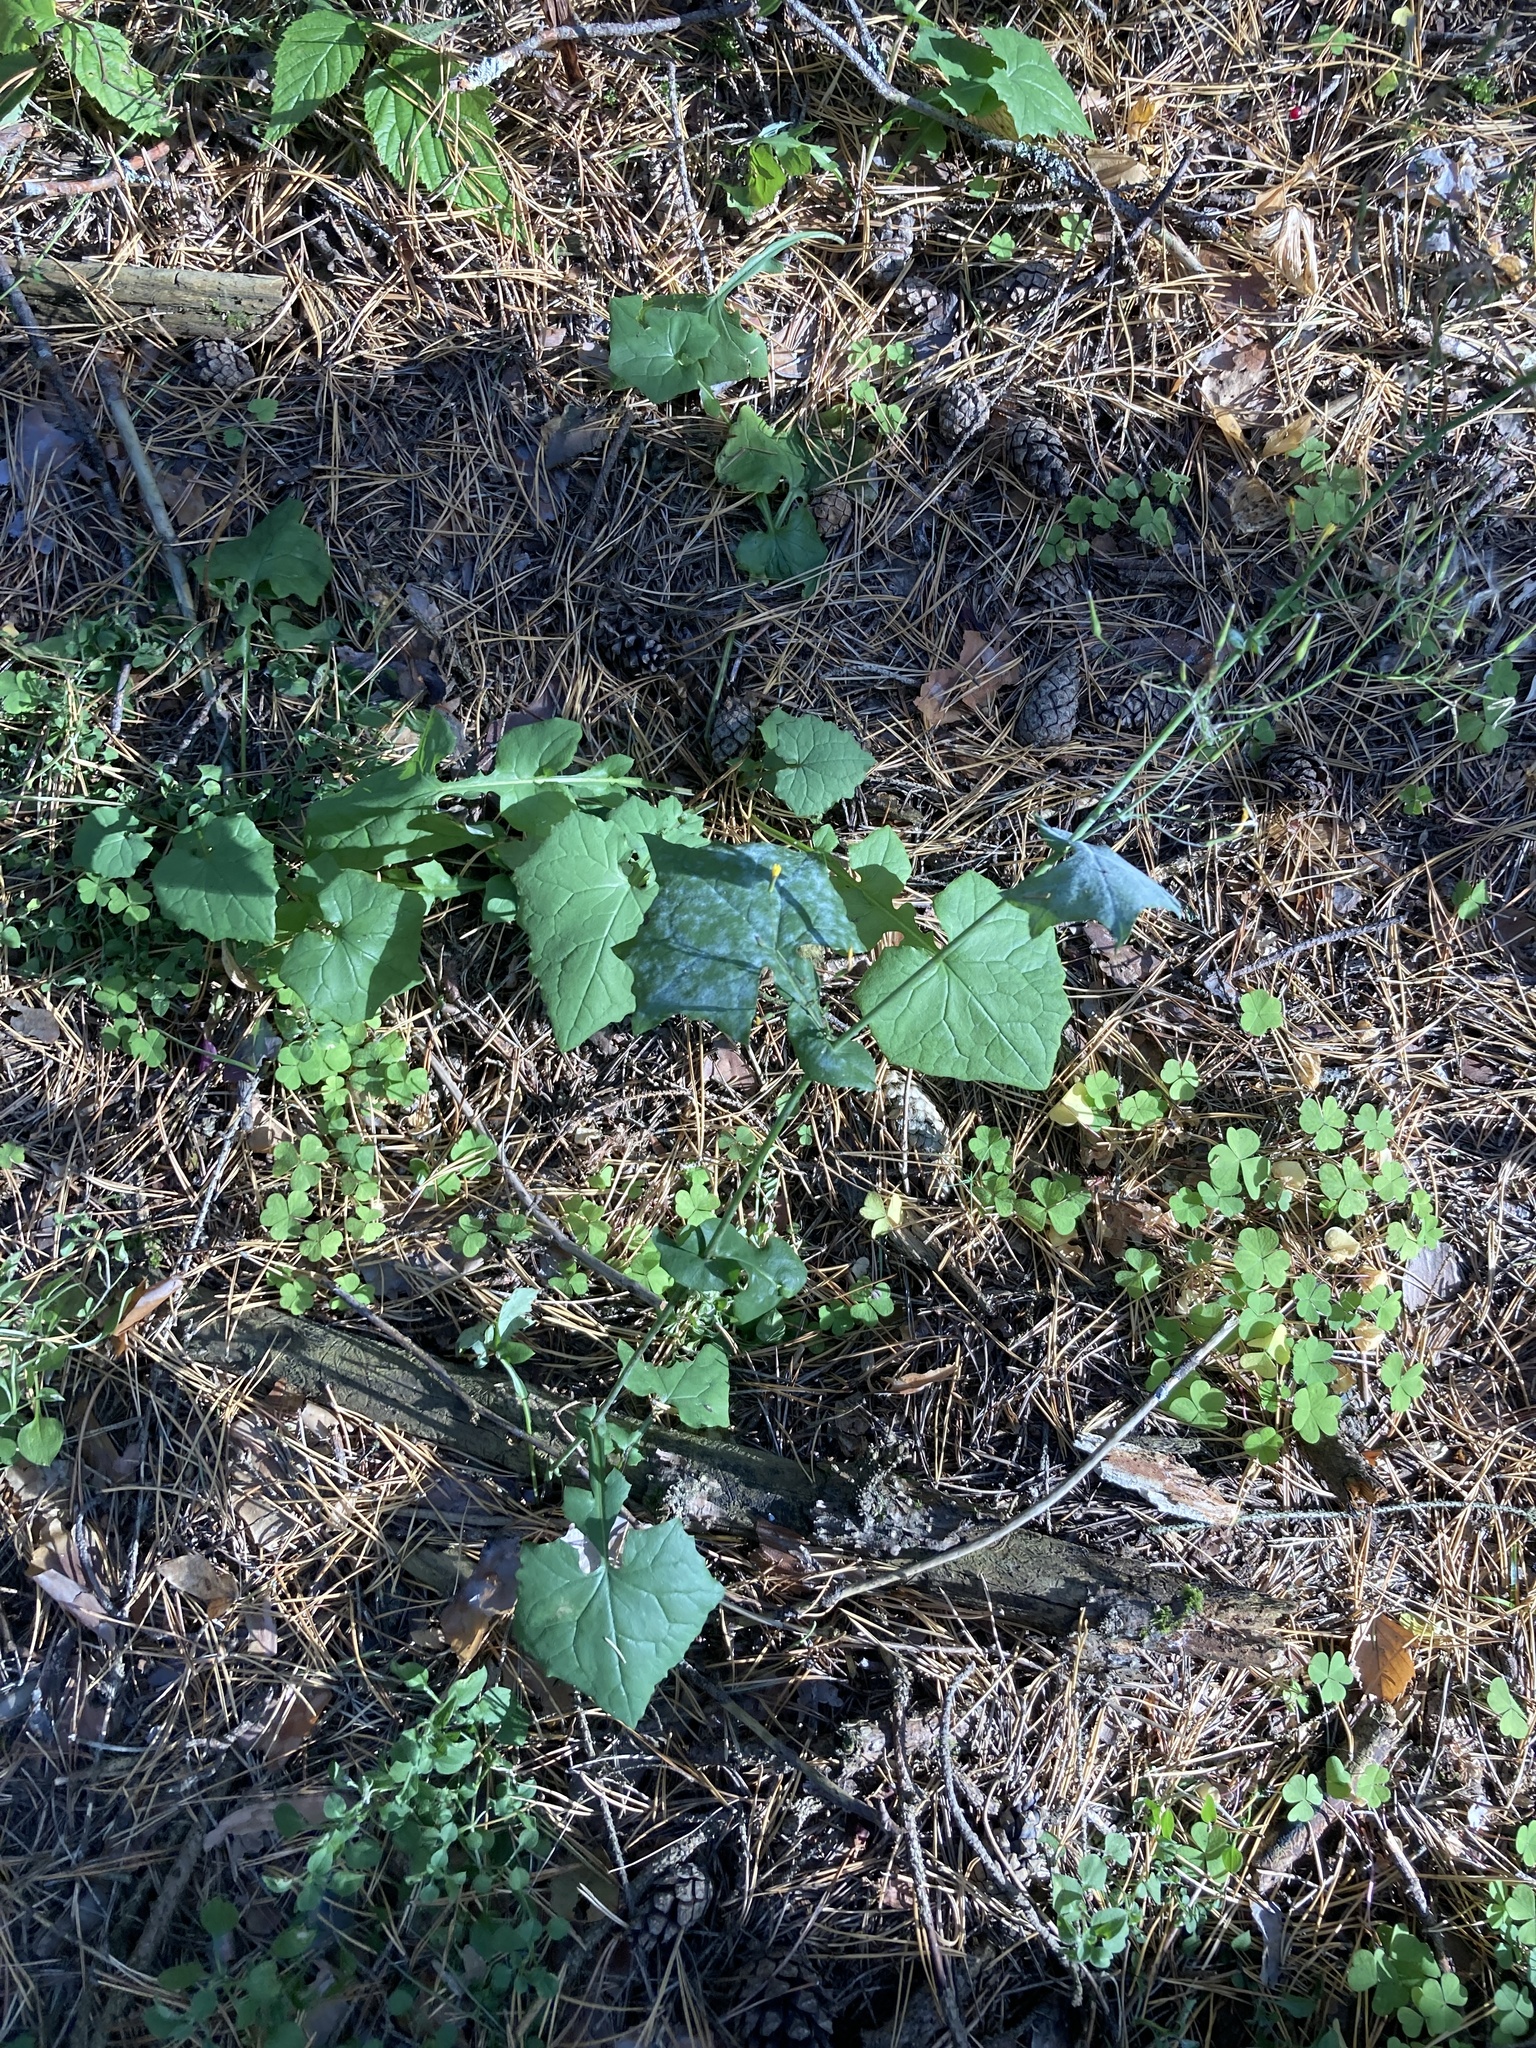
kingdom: Plantae
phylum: Tracheophyta
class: Magnoliopsida
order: Asterales
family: Asteraceae
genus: Mycelis
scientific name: Mycelis muralis
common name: Wall lettuce
